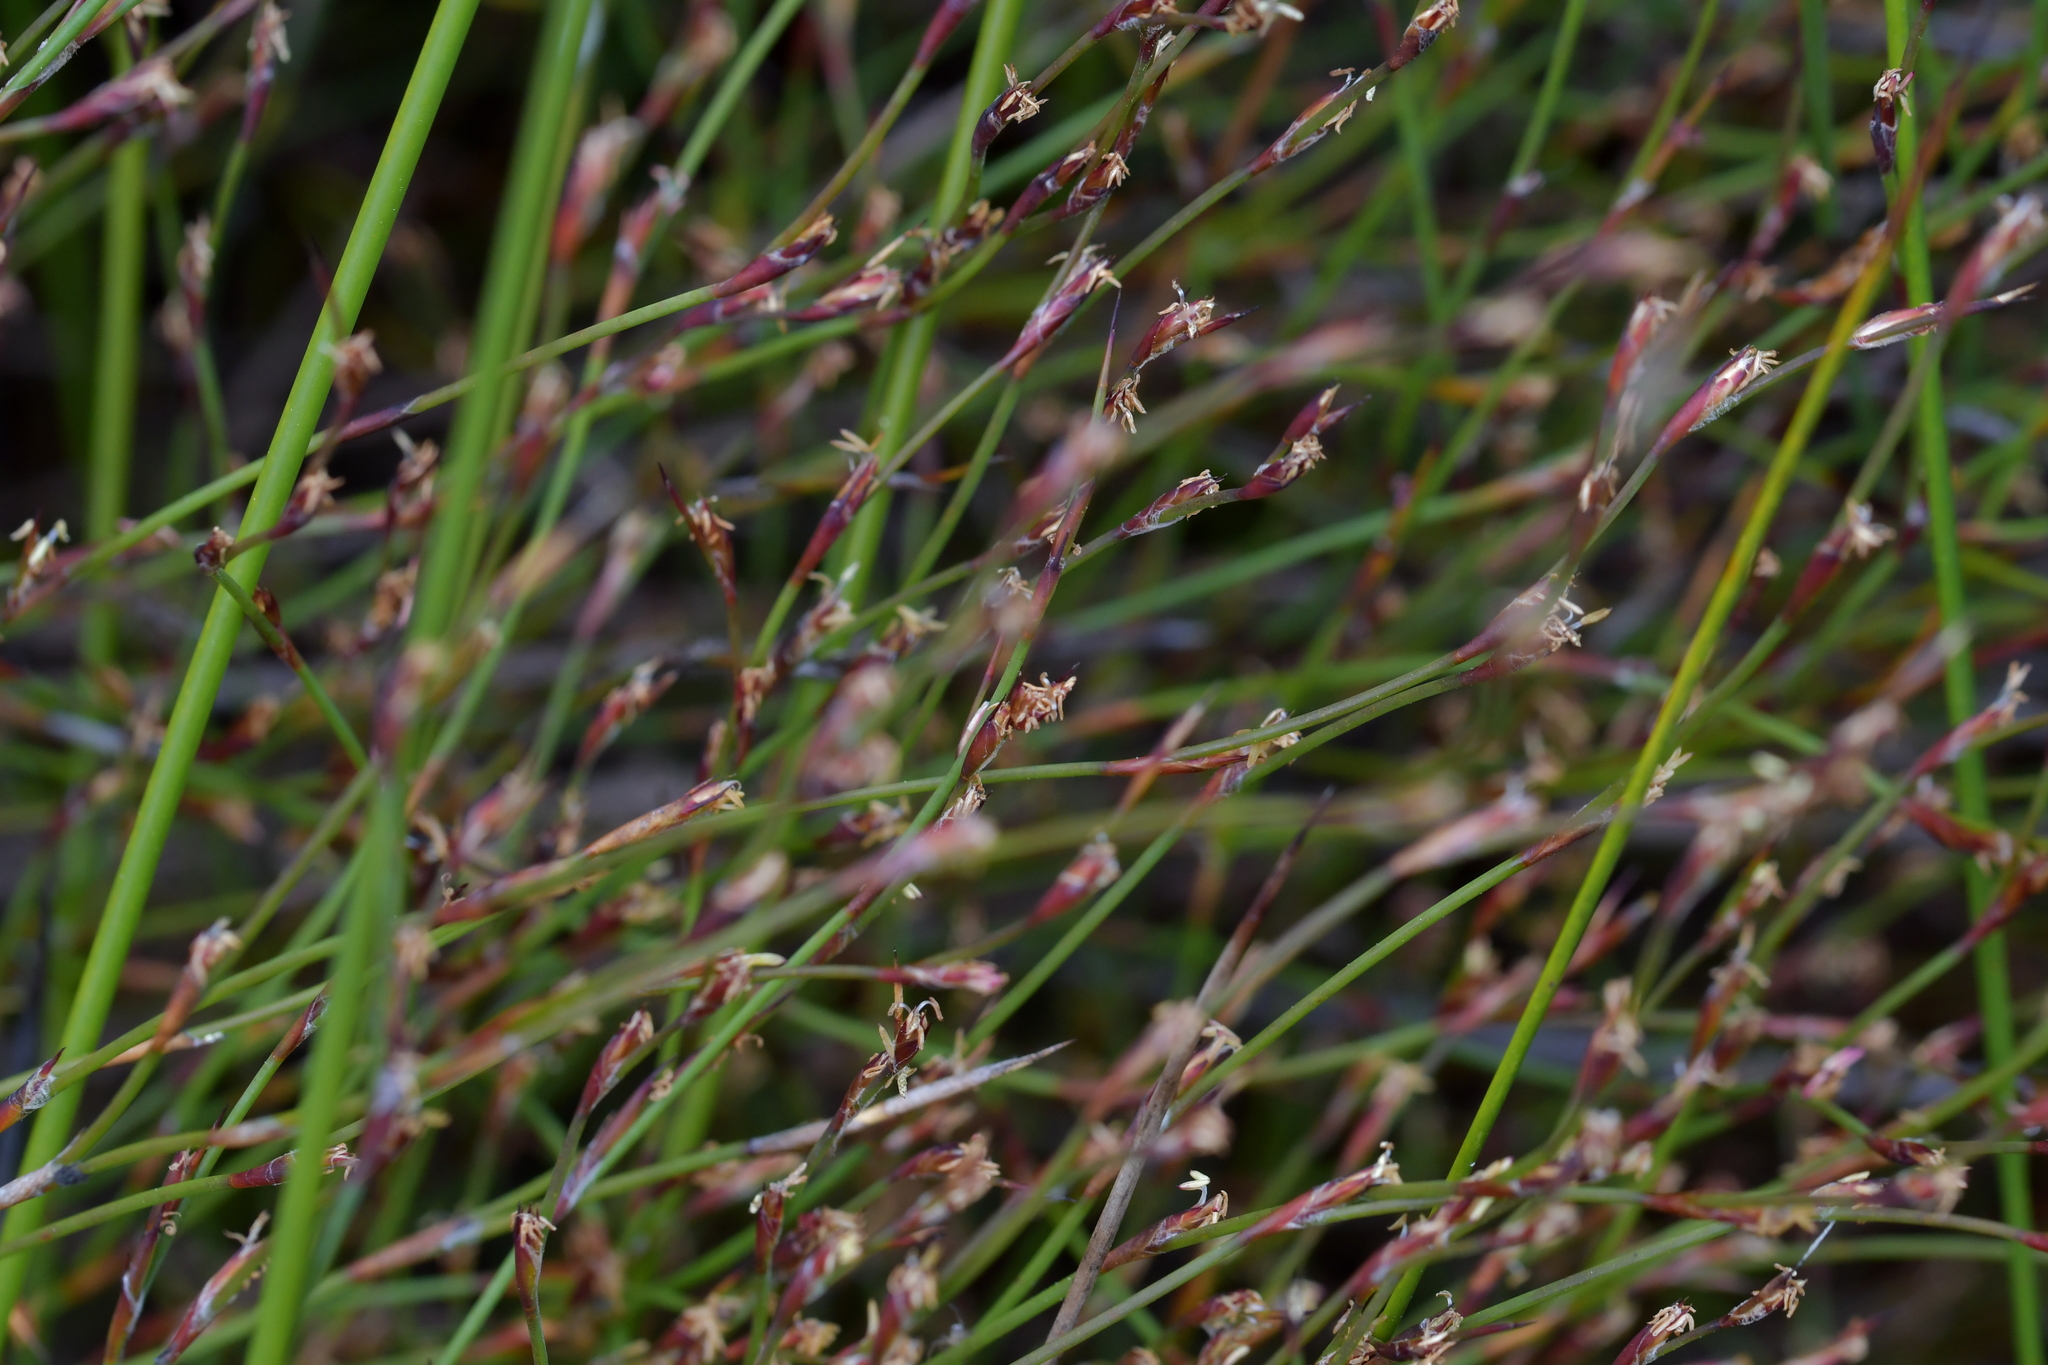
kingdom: Plantae
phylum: Tracheophyta
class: Liliopsida
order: Poales
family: Restionaceae
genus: Empodisma
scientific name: Empodisma minus
